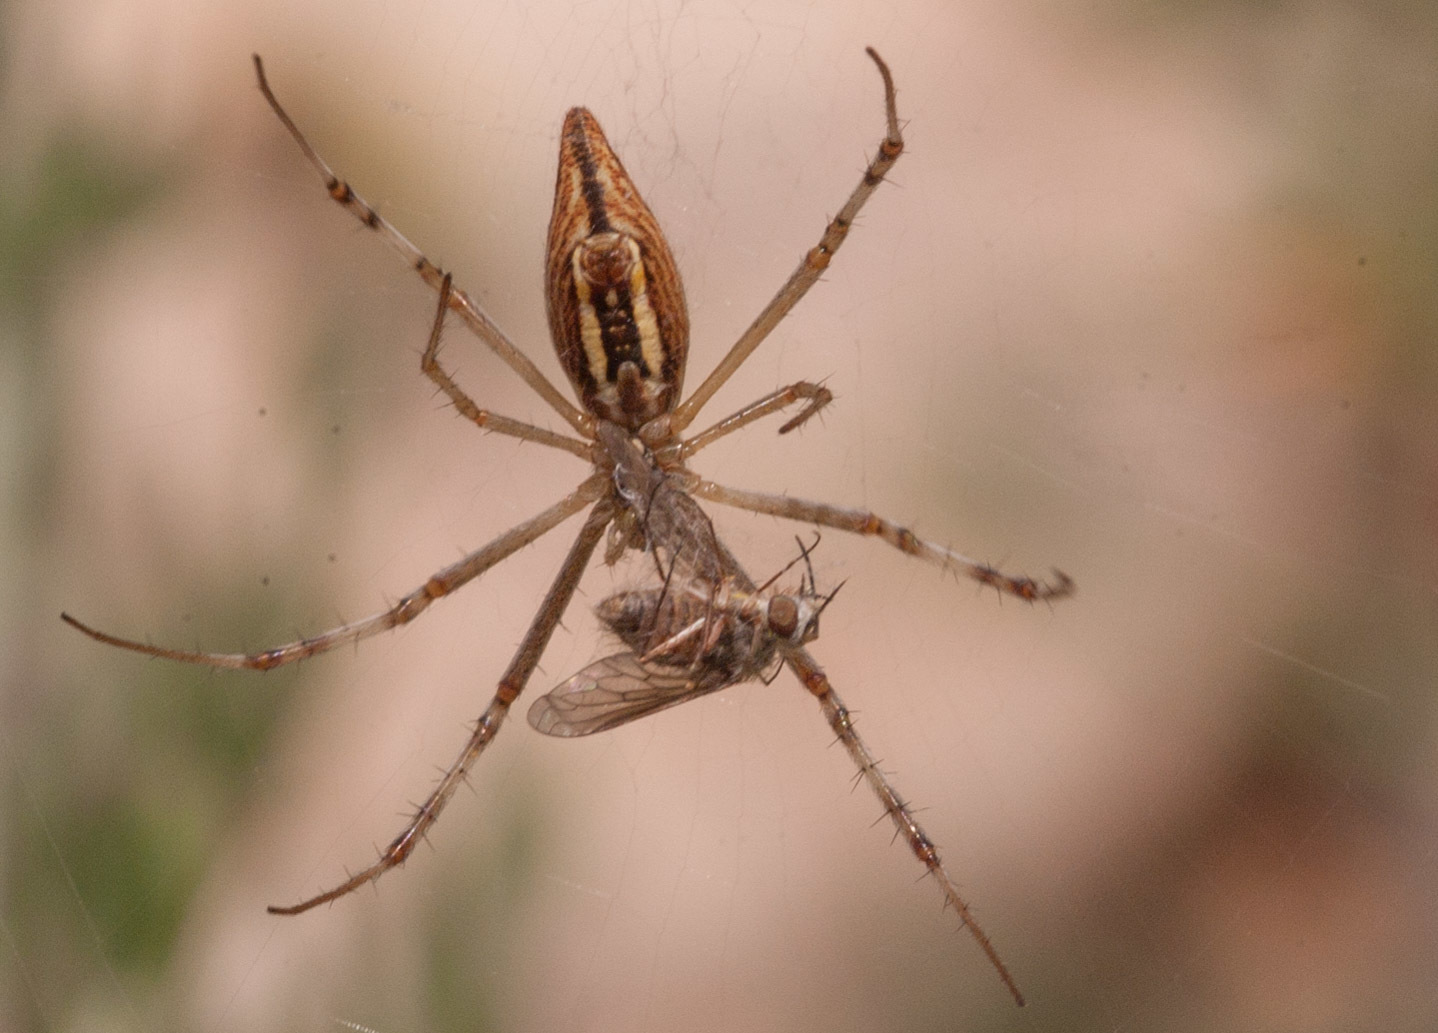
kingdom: Animalia
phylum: Arthropoda
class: Arachnida
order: Araneae
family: Araneidae
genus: Argiope
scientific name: Argiope protensa
